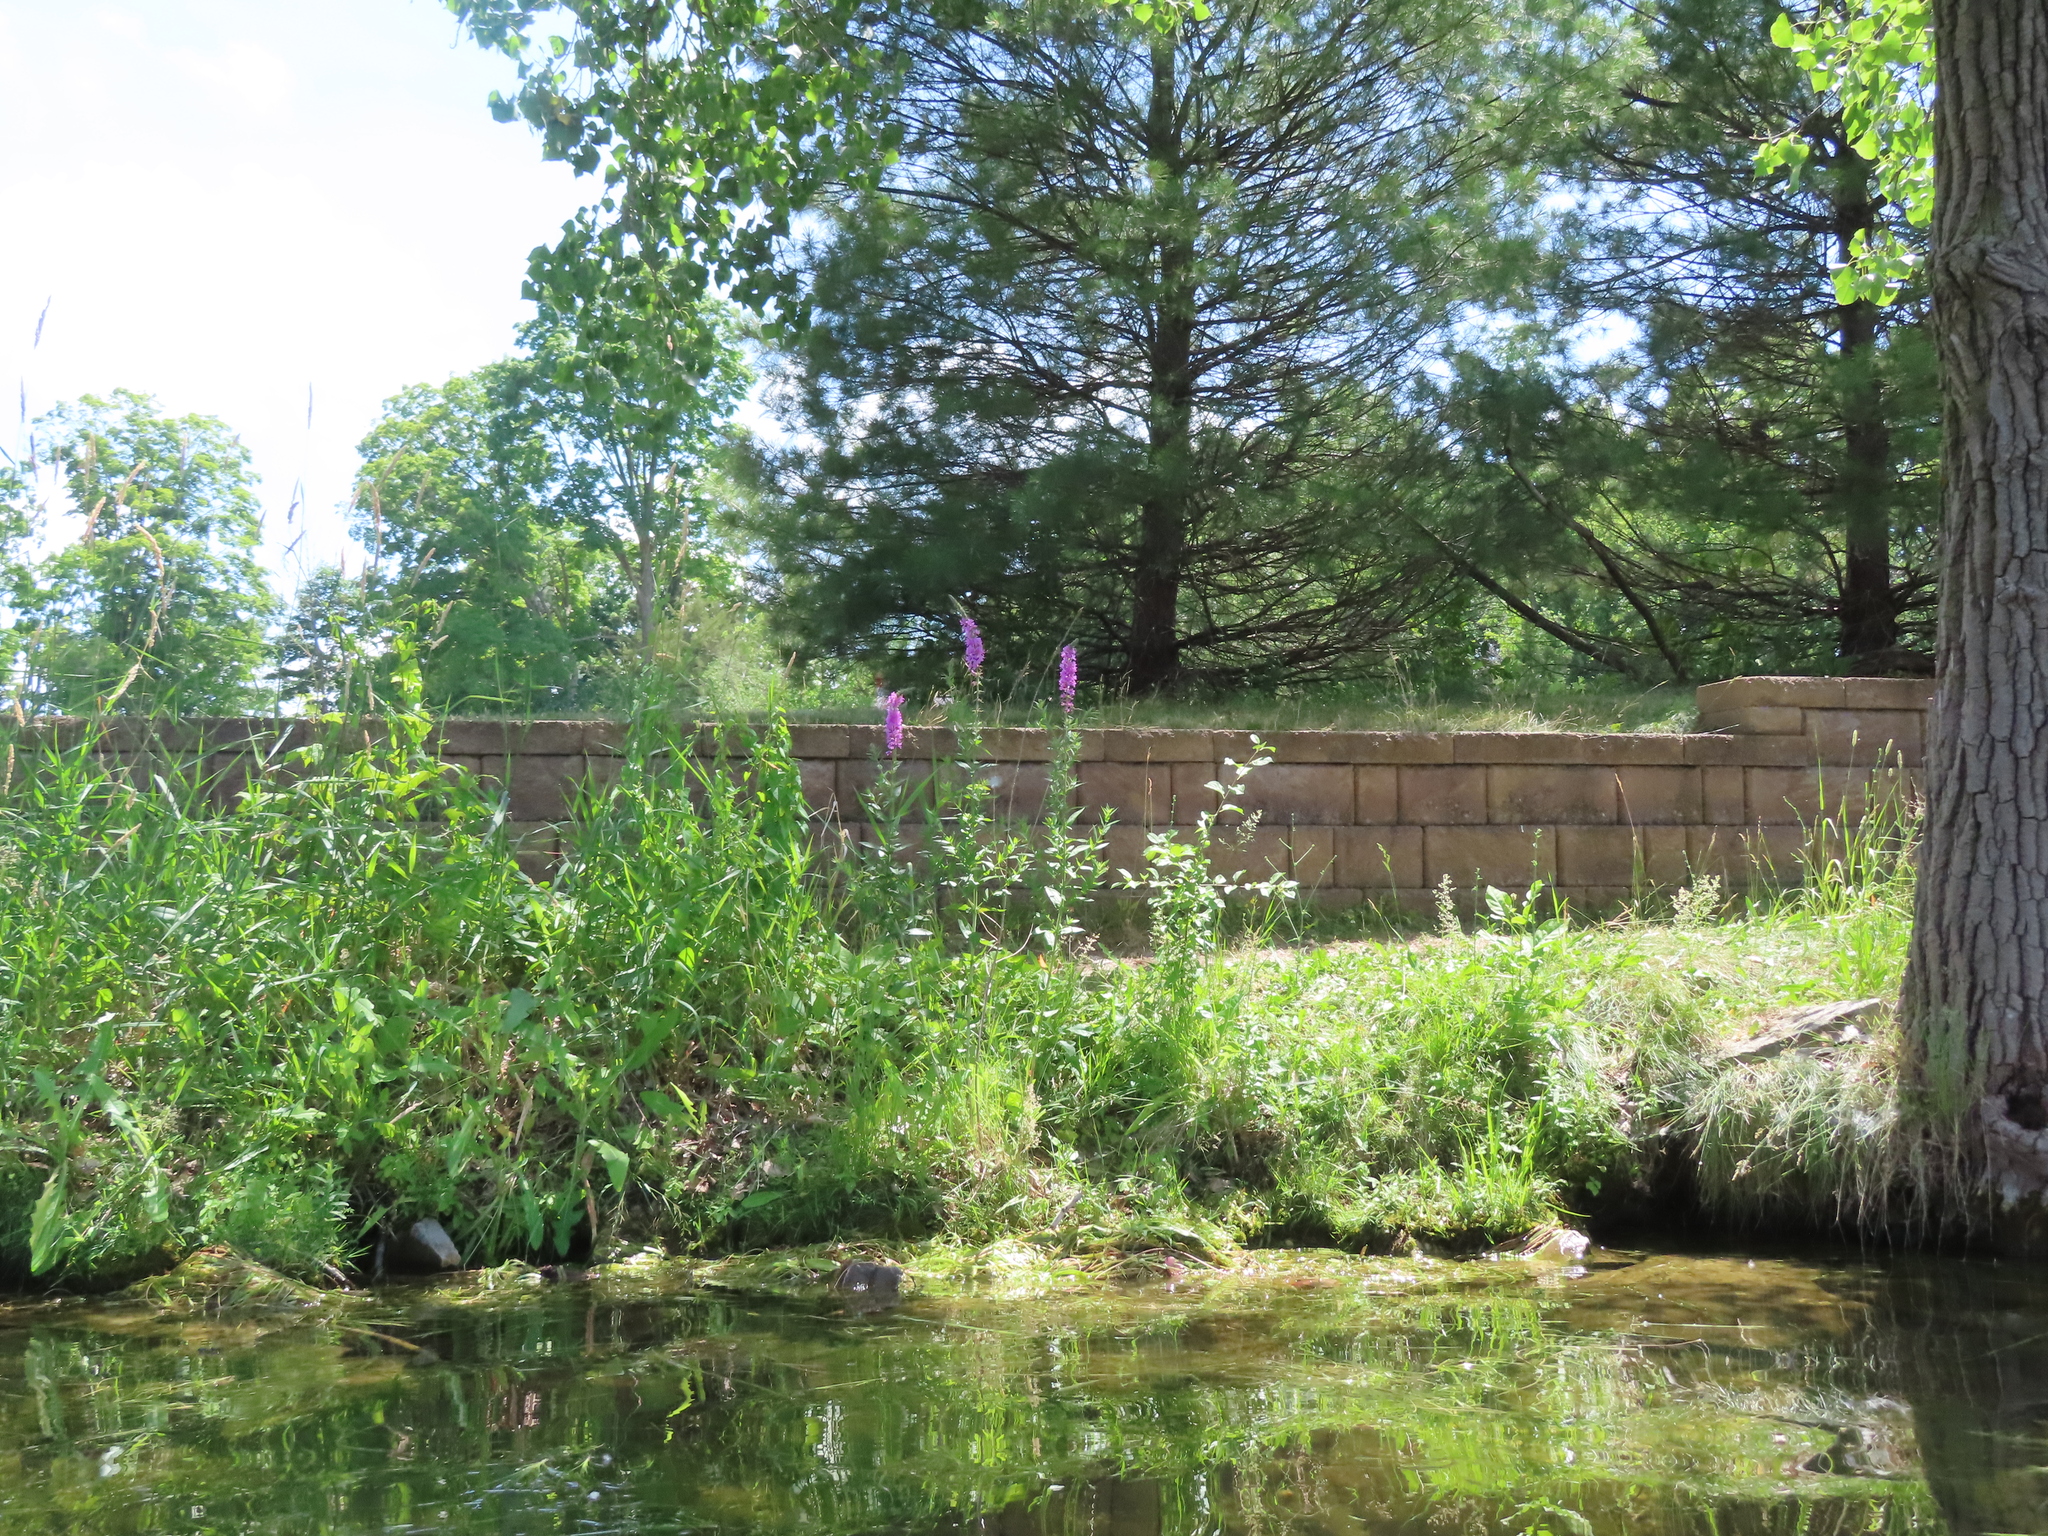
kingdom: Plantae
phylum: Tracheophyta
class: Magnoliopsida
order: Myrtales
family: Lythraceae
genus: Lythrum
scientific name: Lythrum salicaria
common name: Purple loosestrife
